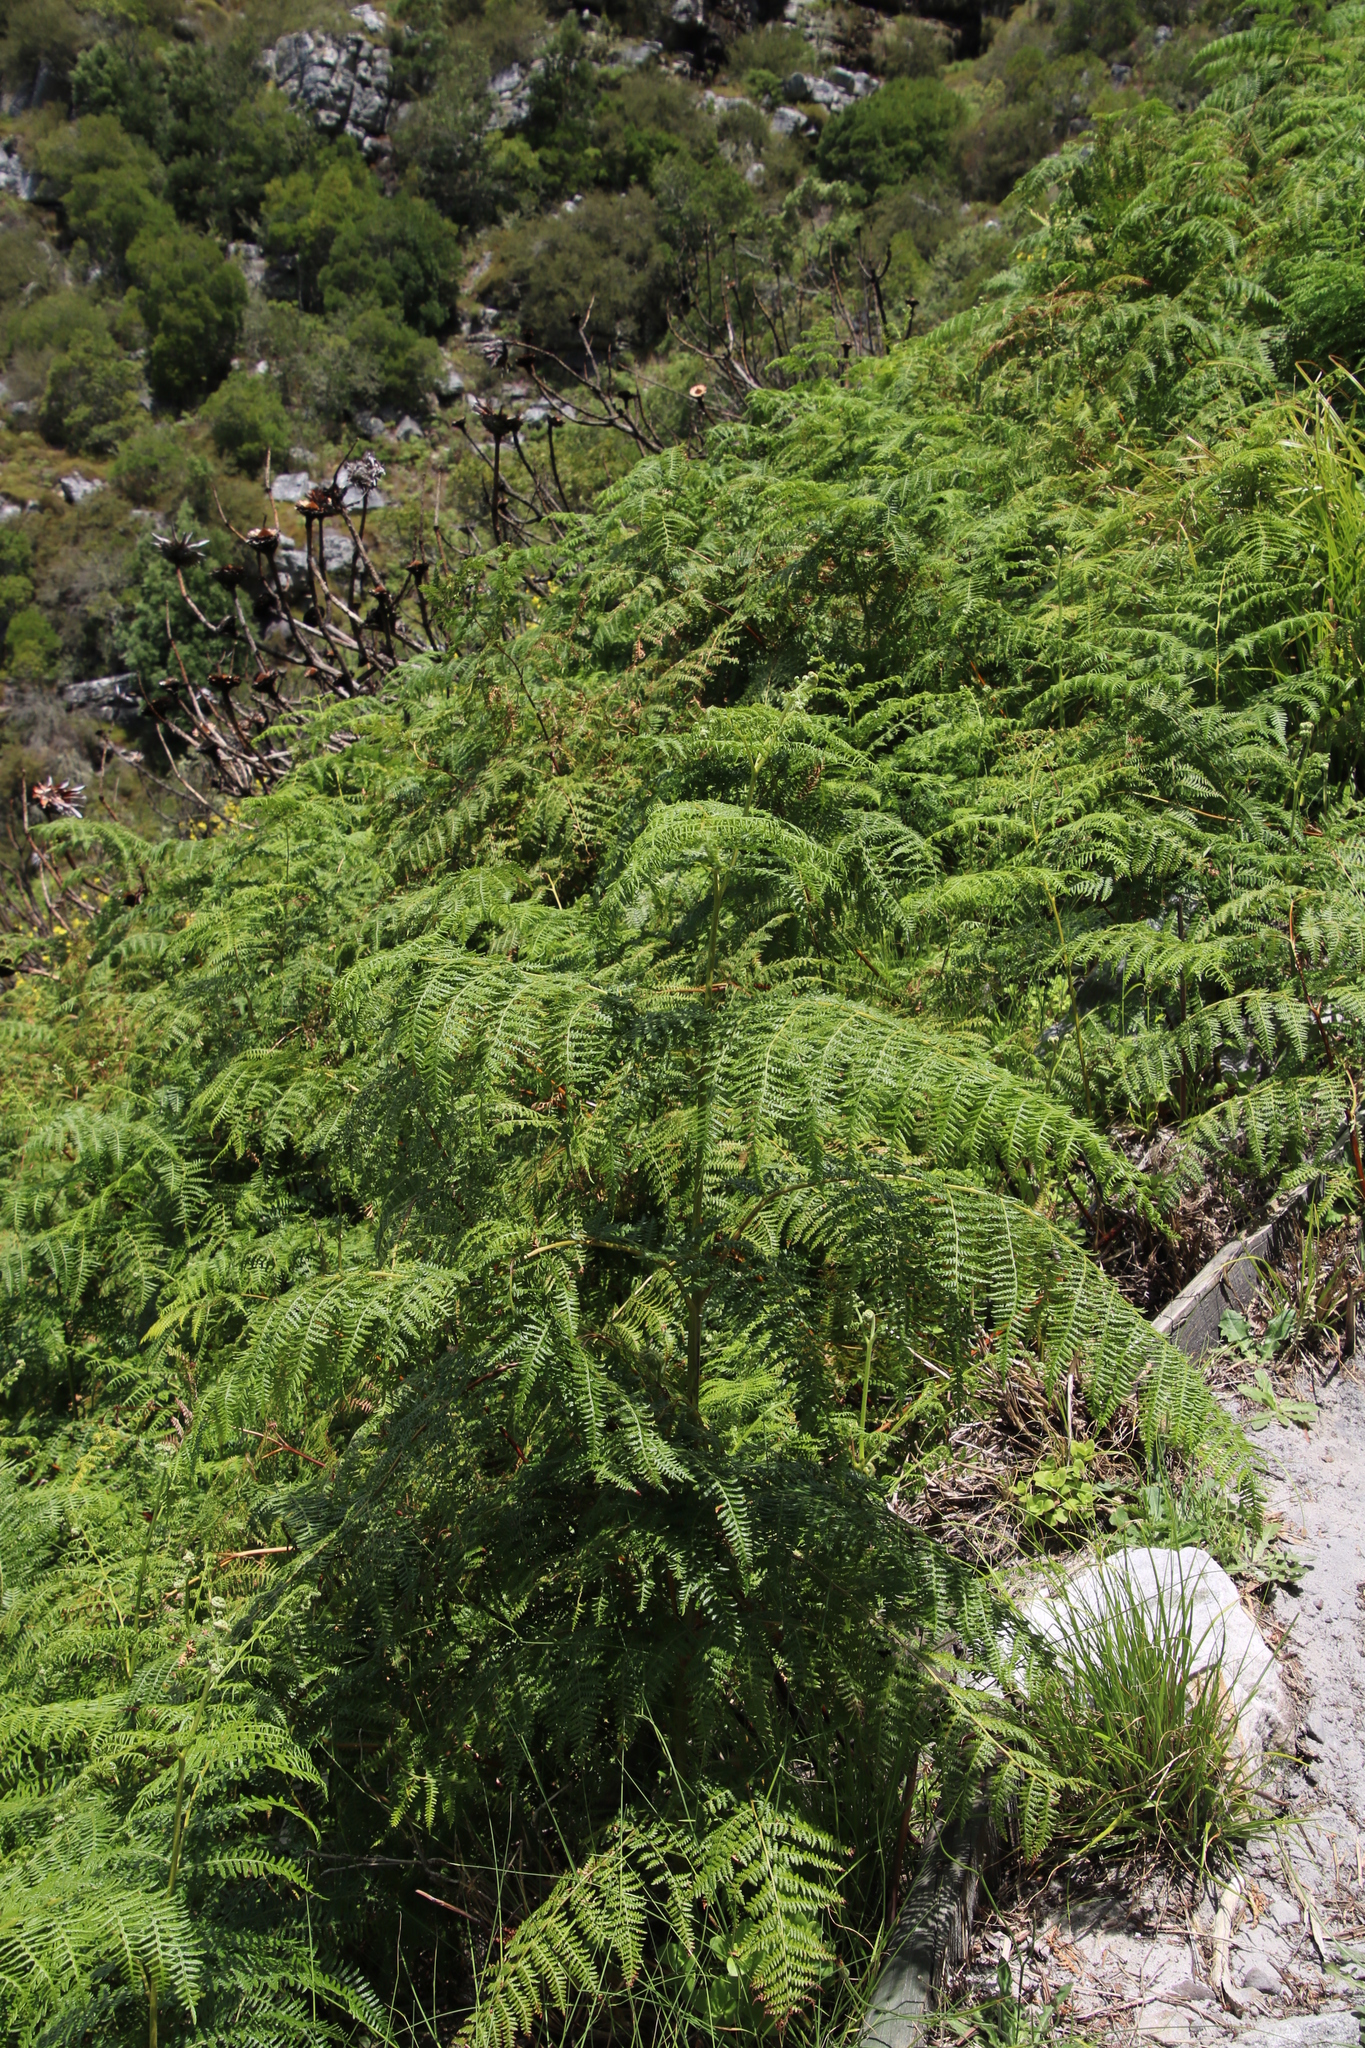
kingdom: Plantae
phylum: Tracheophyta
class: Polypodiopsida
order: Polypodiales
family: Dennstaedtiaceae
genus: Pteridium
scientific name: Pteridium aquilinum
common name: Bracken
